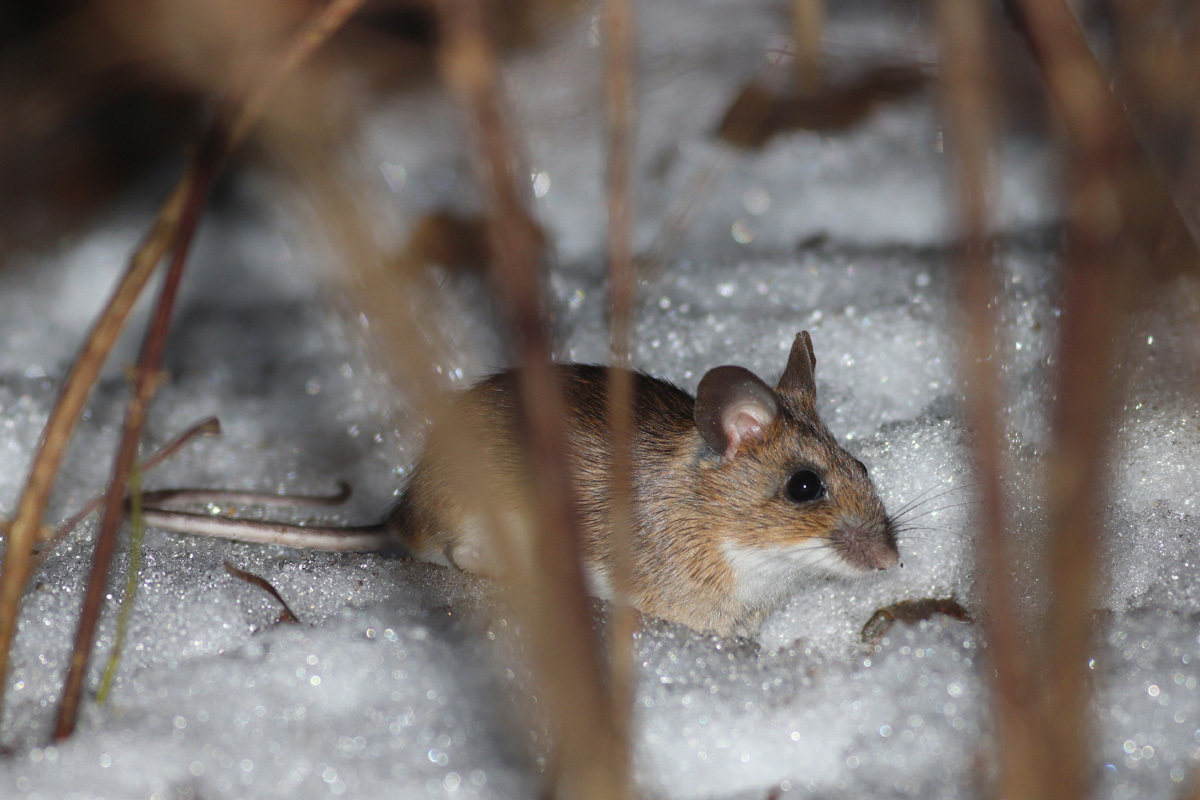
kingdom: Animalia
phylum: Chordata
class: Mammalia
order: Rodentia
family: Muridae
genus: Apodemus
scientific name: Apodemus flavicollis
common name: Yellow-necked field mouse
